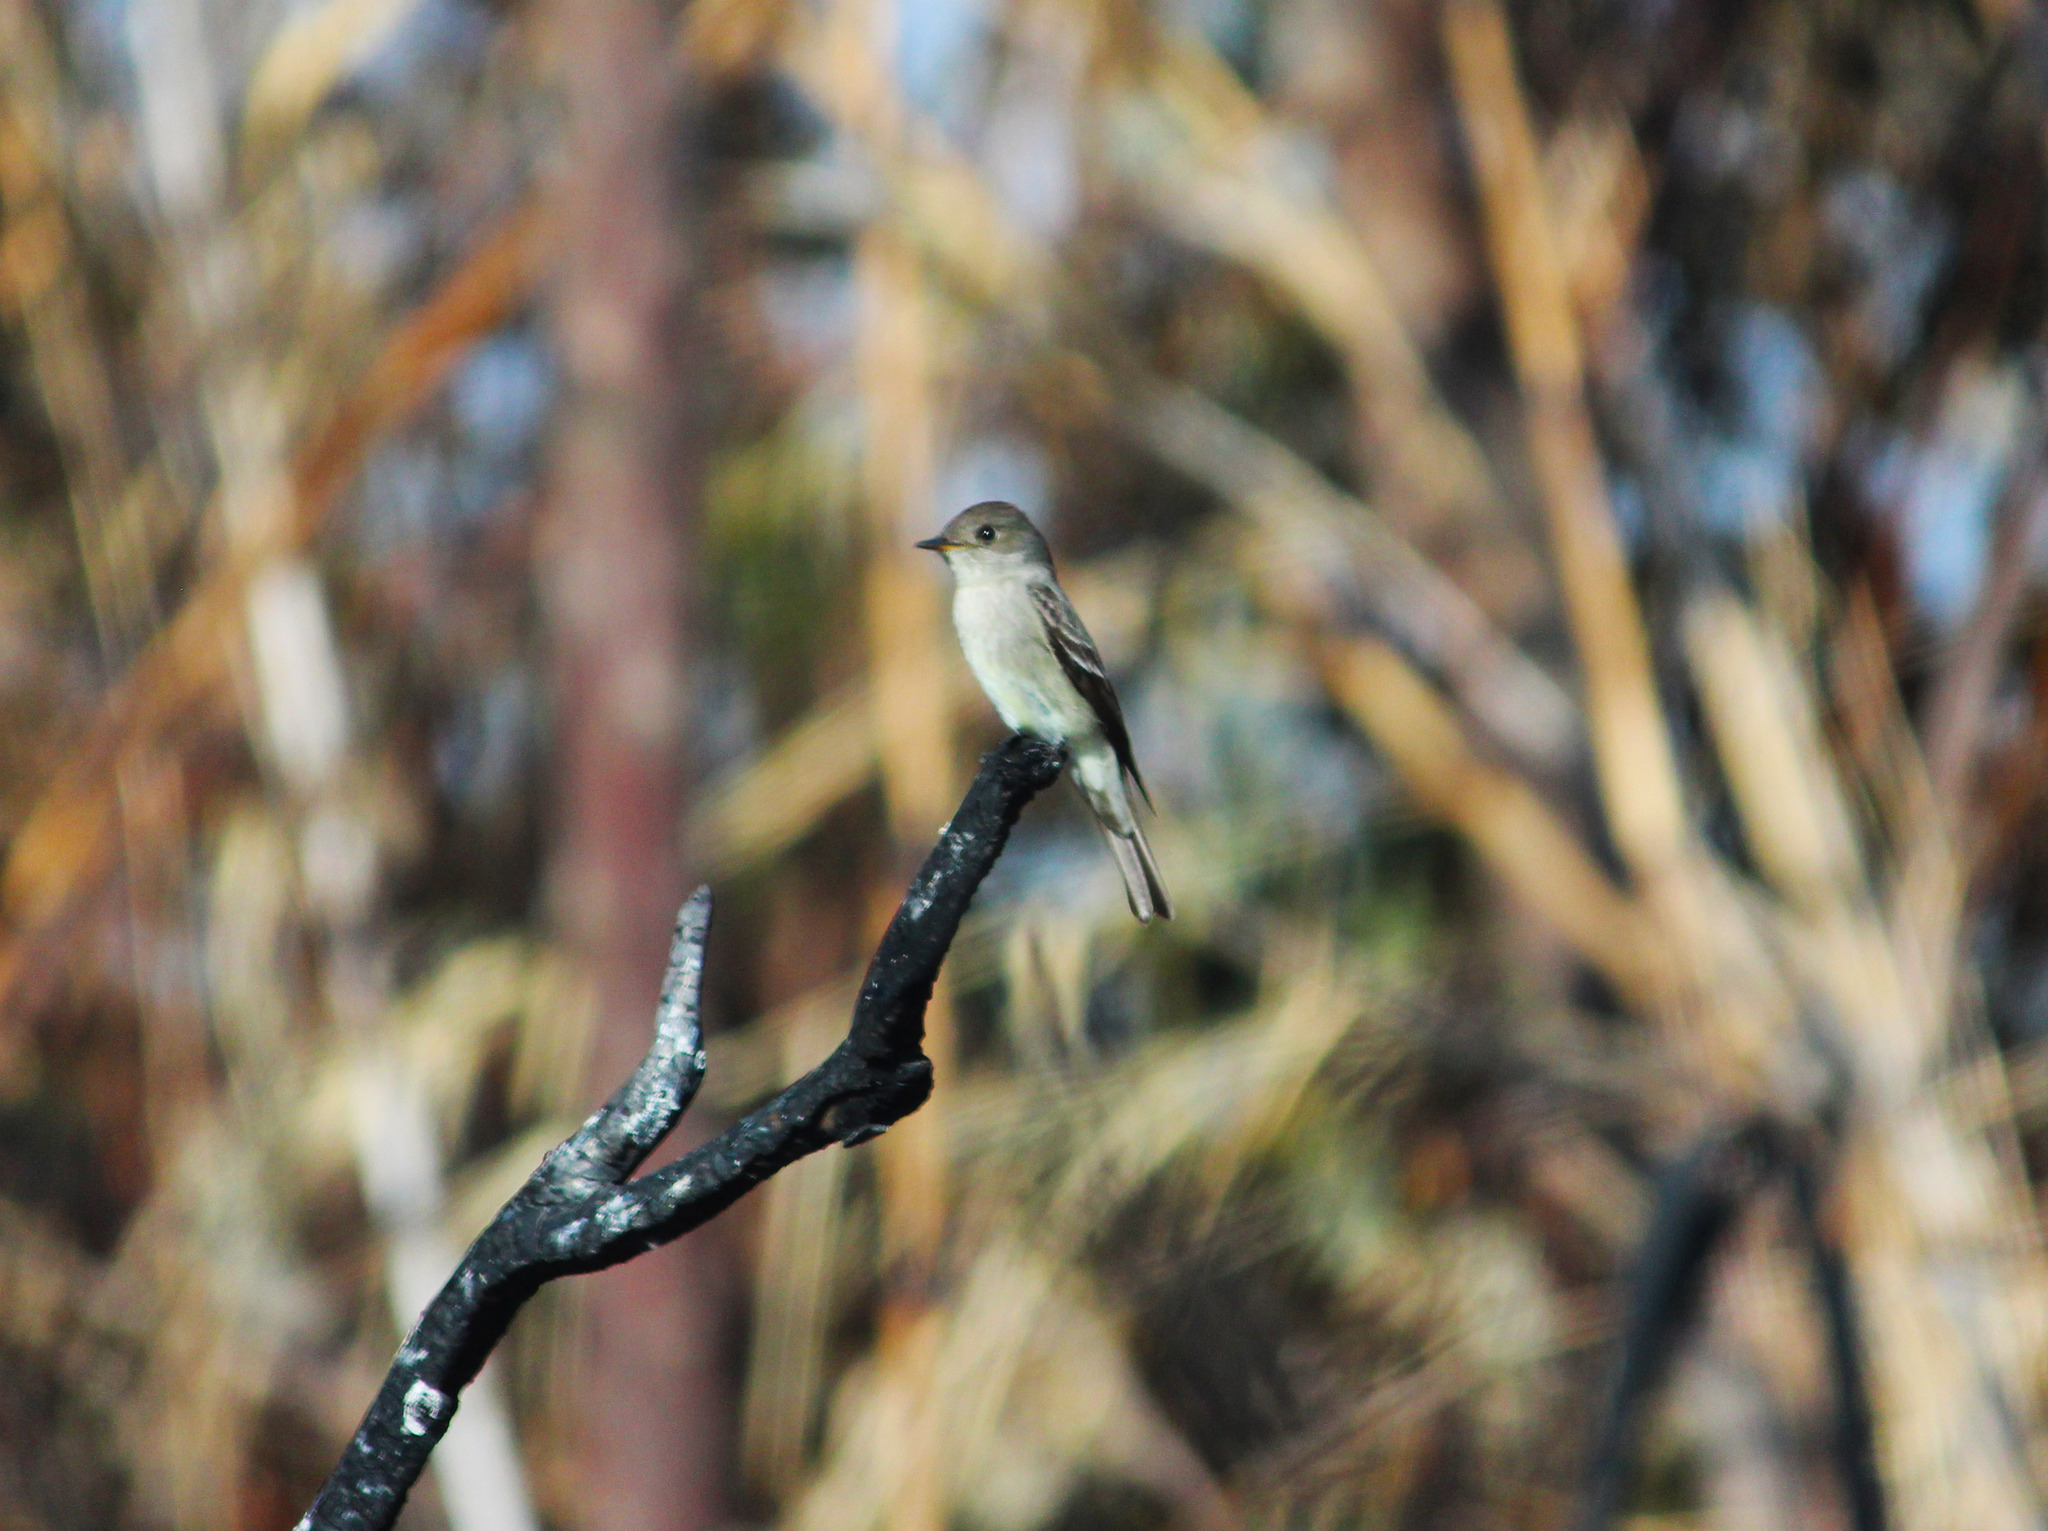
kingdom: Animalia
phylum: Chordata
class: Aves
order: Passeriformes
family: Tyrannidae
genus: Contopus
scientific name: Contopus sordidulus
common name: Western wood-pewee
